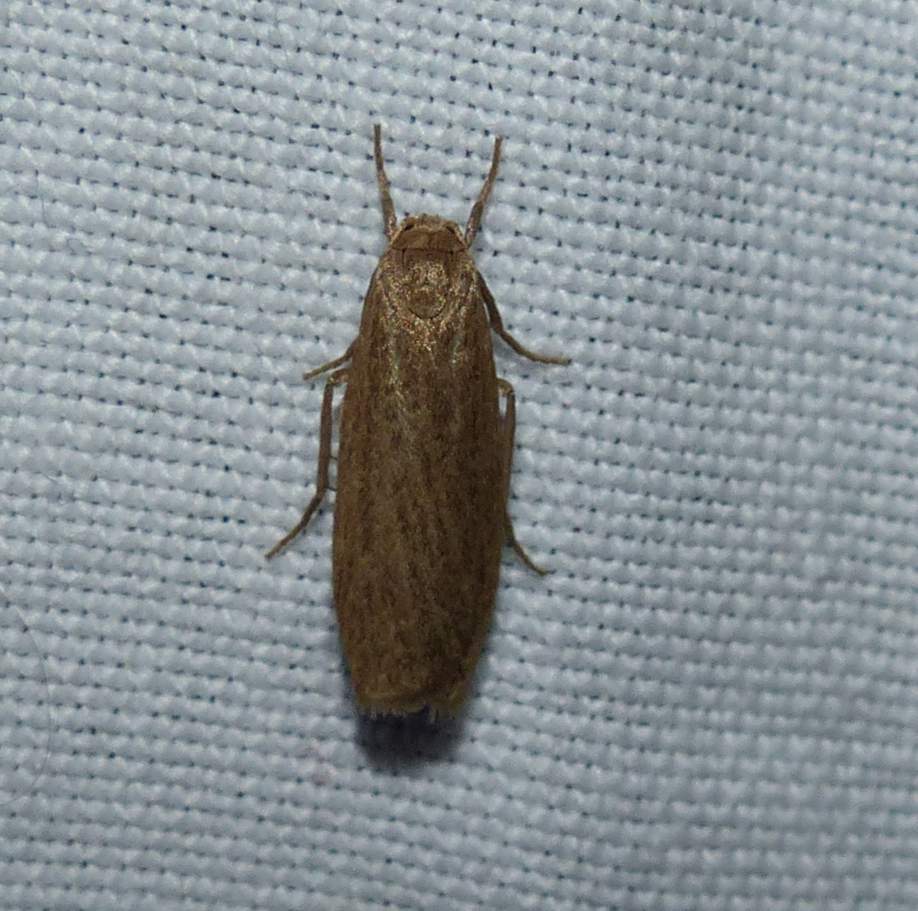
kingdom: Animalia
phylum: Arthropoda
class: Insecta
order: Lepidoptera
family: Erebidae
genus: Crambidia
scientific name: Crambidia pallida
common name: Pale lichen moth
